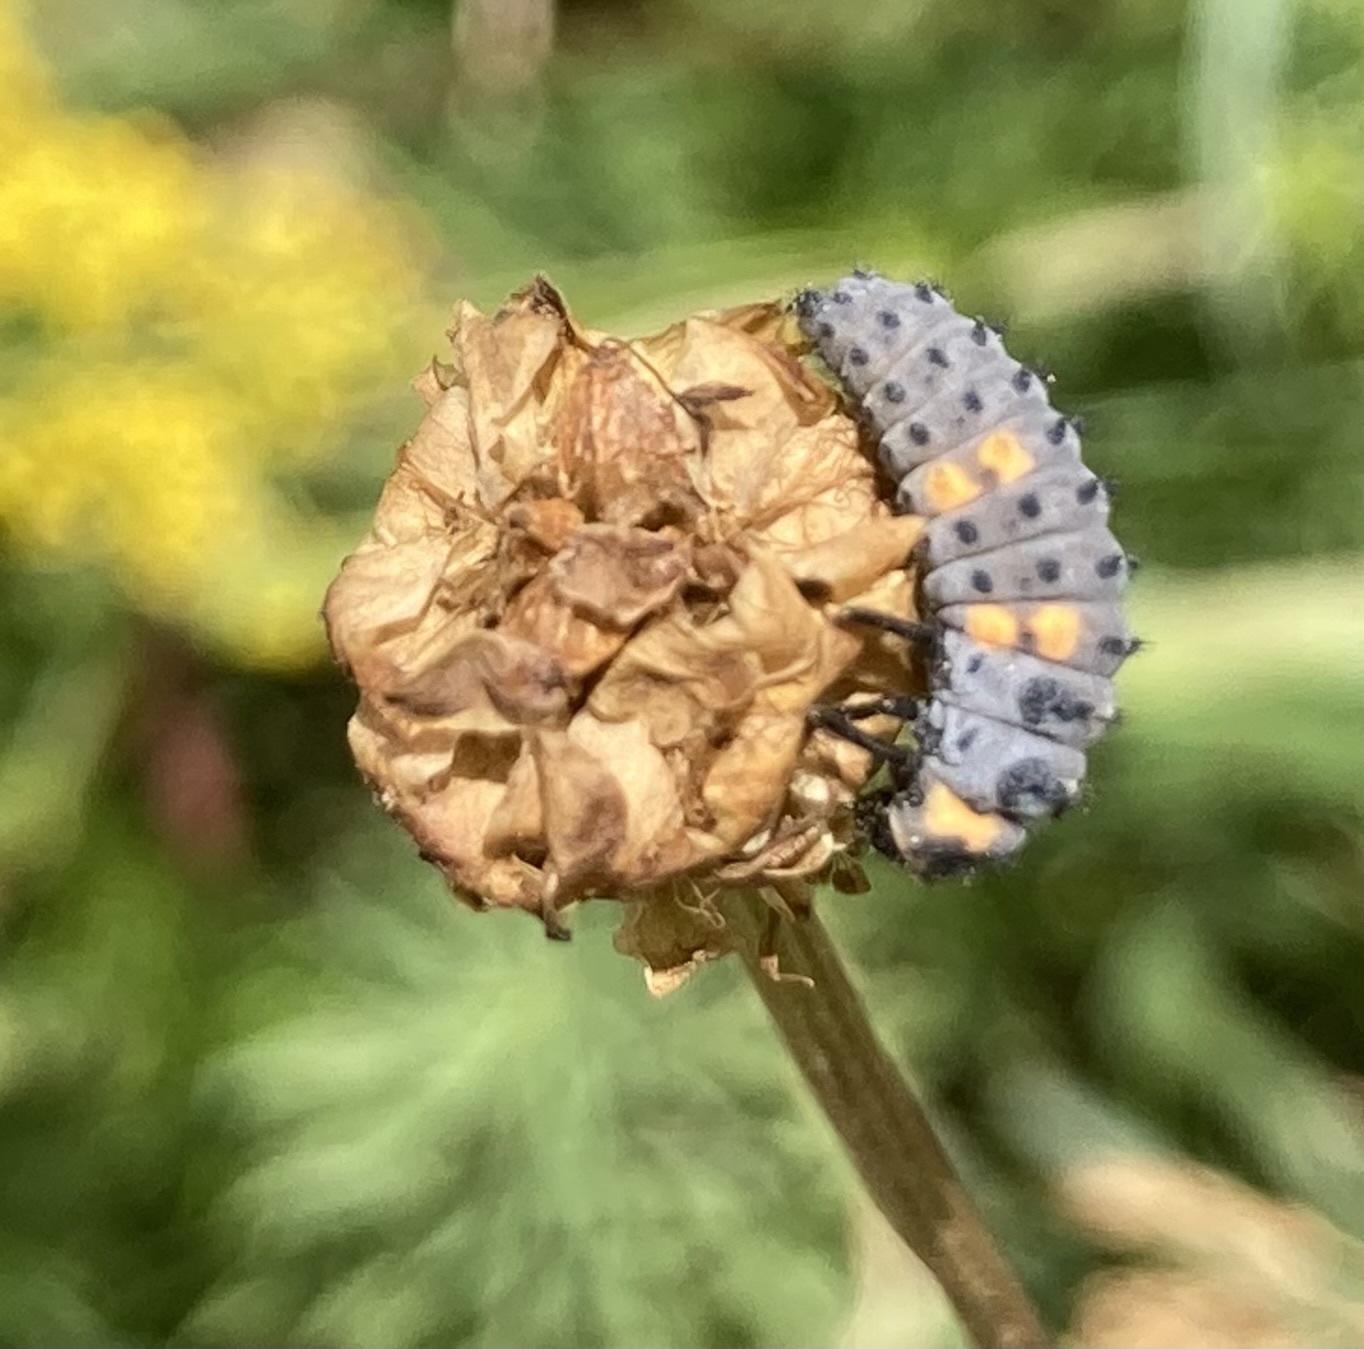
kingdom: Animalia
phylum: Arthropoda
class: Insecta
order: Coleoptera
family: Coccinellidae
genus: Coccinella
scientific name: Coccinella septempunctata
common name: Sevenspotted lady beetle
